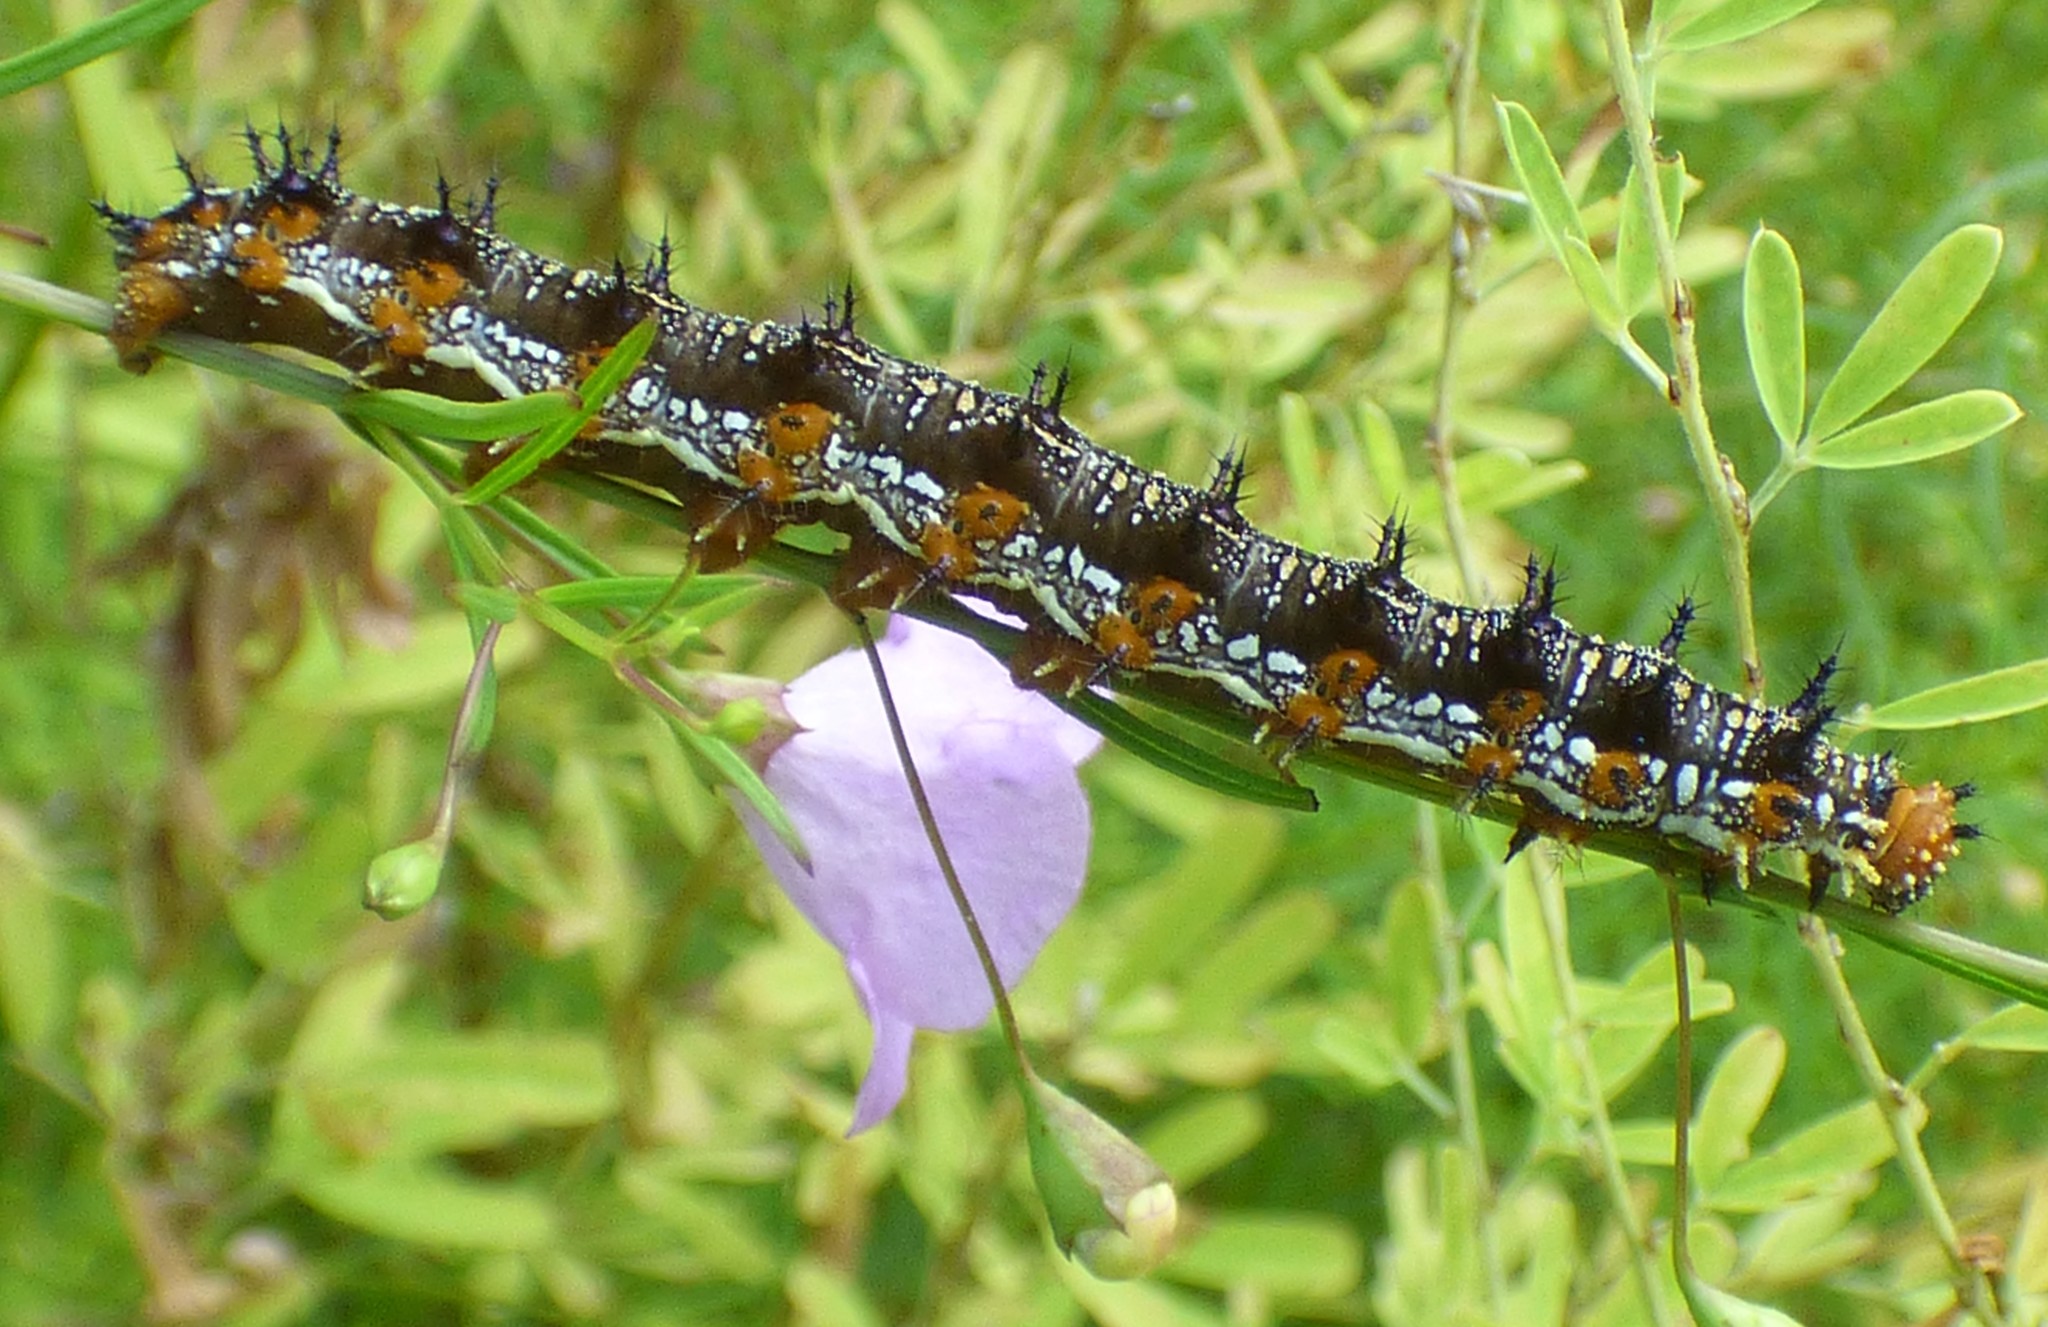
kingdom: Animalia
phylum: Arthropoda
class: Insecta
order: Lepidoptera
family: Nymphalidae
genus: Junonia
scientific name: Junonia coenia
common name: Common buckeye
